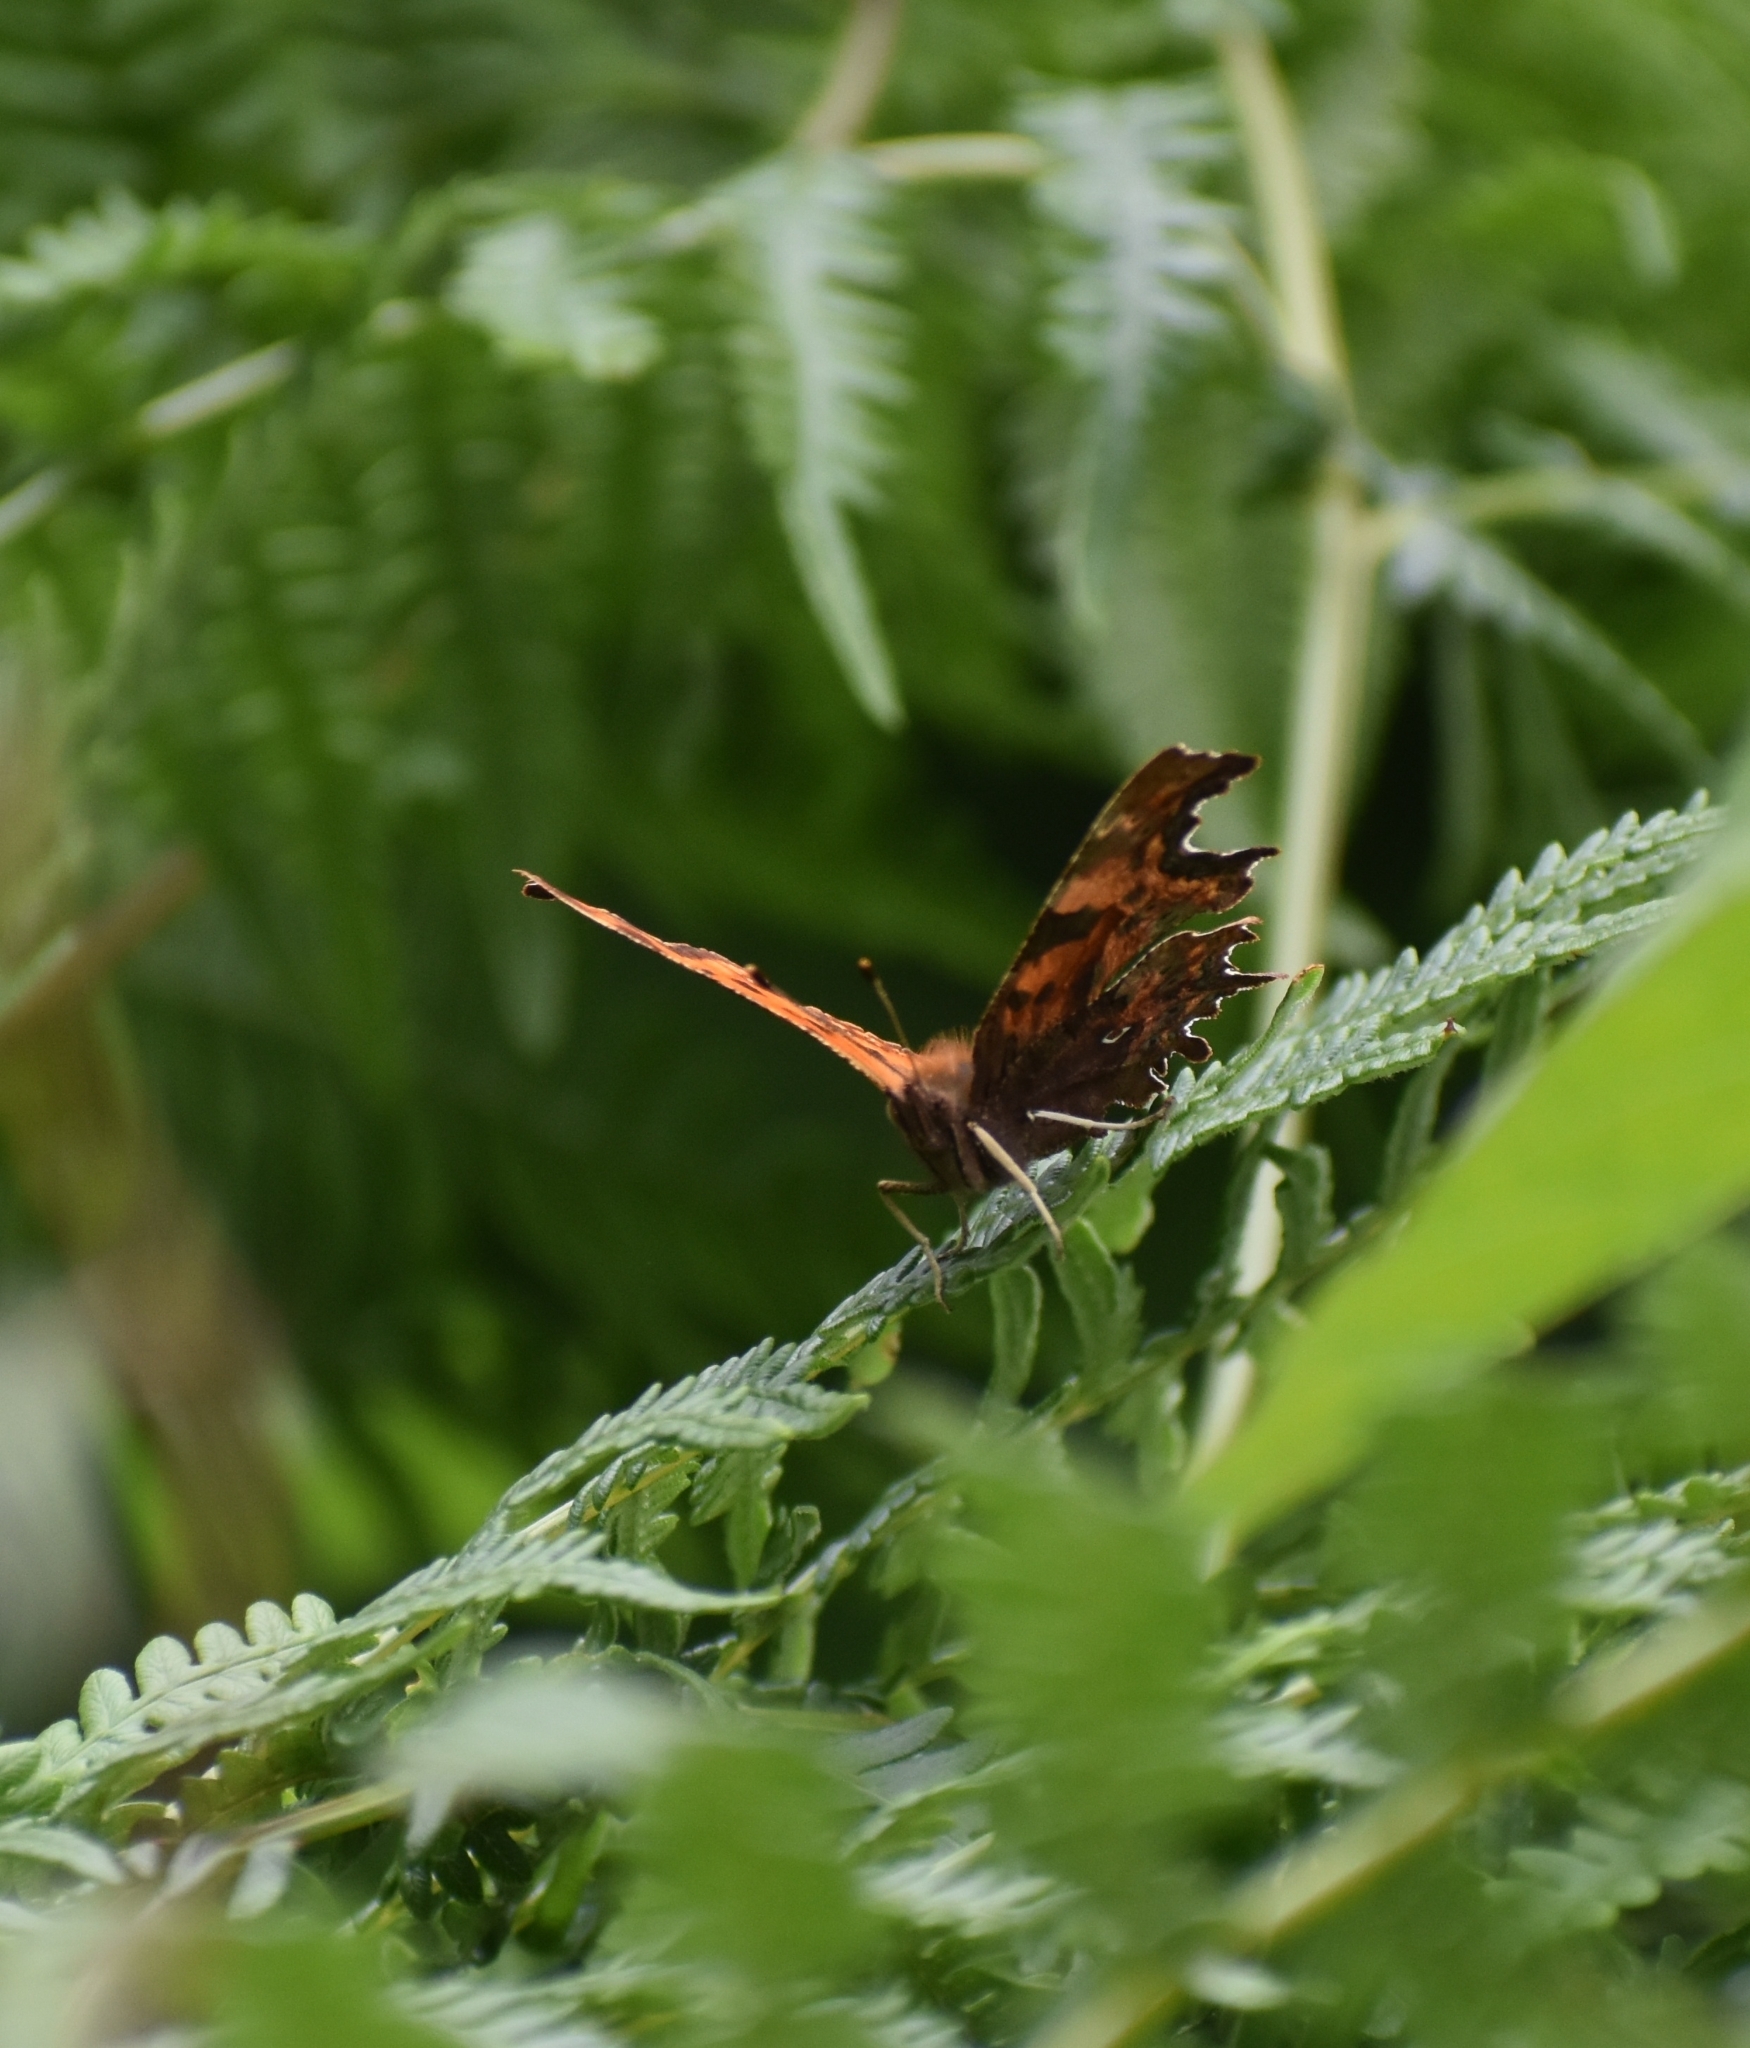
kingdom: Animalia
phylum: Arthropoda
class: Insecta
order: Lepidoptera
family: Nymphalidae
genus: Polygonia
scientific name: Polygonia c-album
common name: Comma
